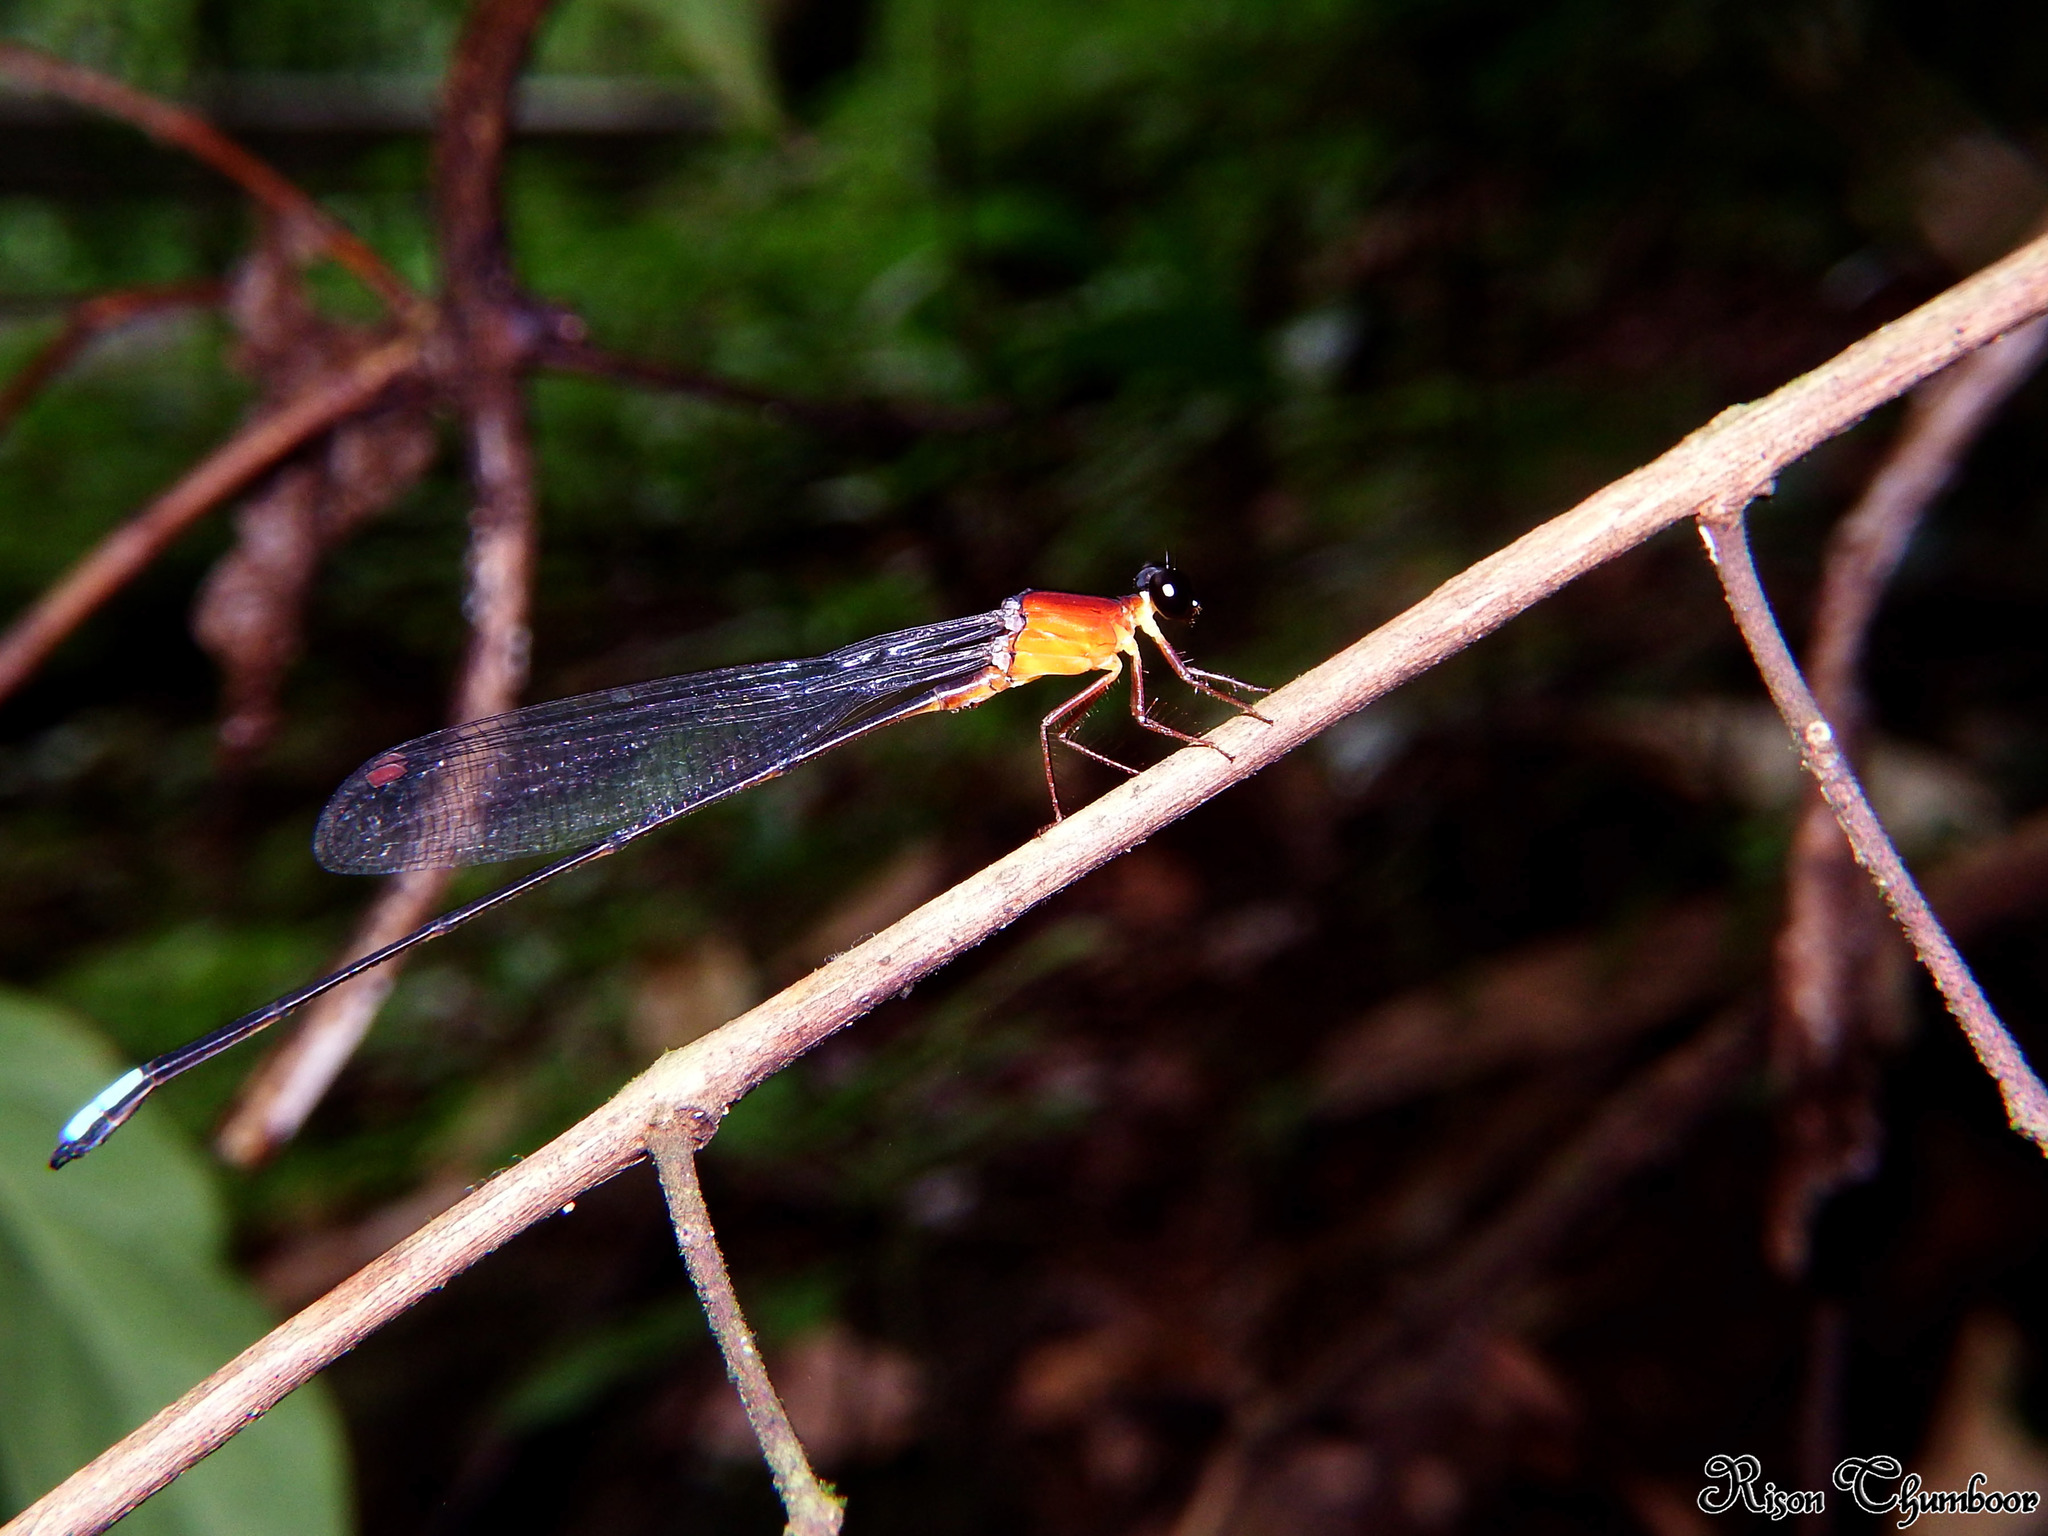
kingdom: Animalia
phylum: Arthropoda
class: Insecta
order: Odonata
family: Platystictidae
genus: Indosticta
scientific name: Indosticta deccanensis
